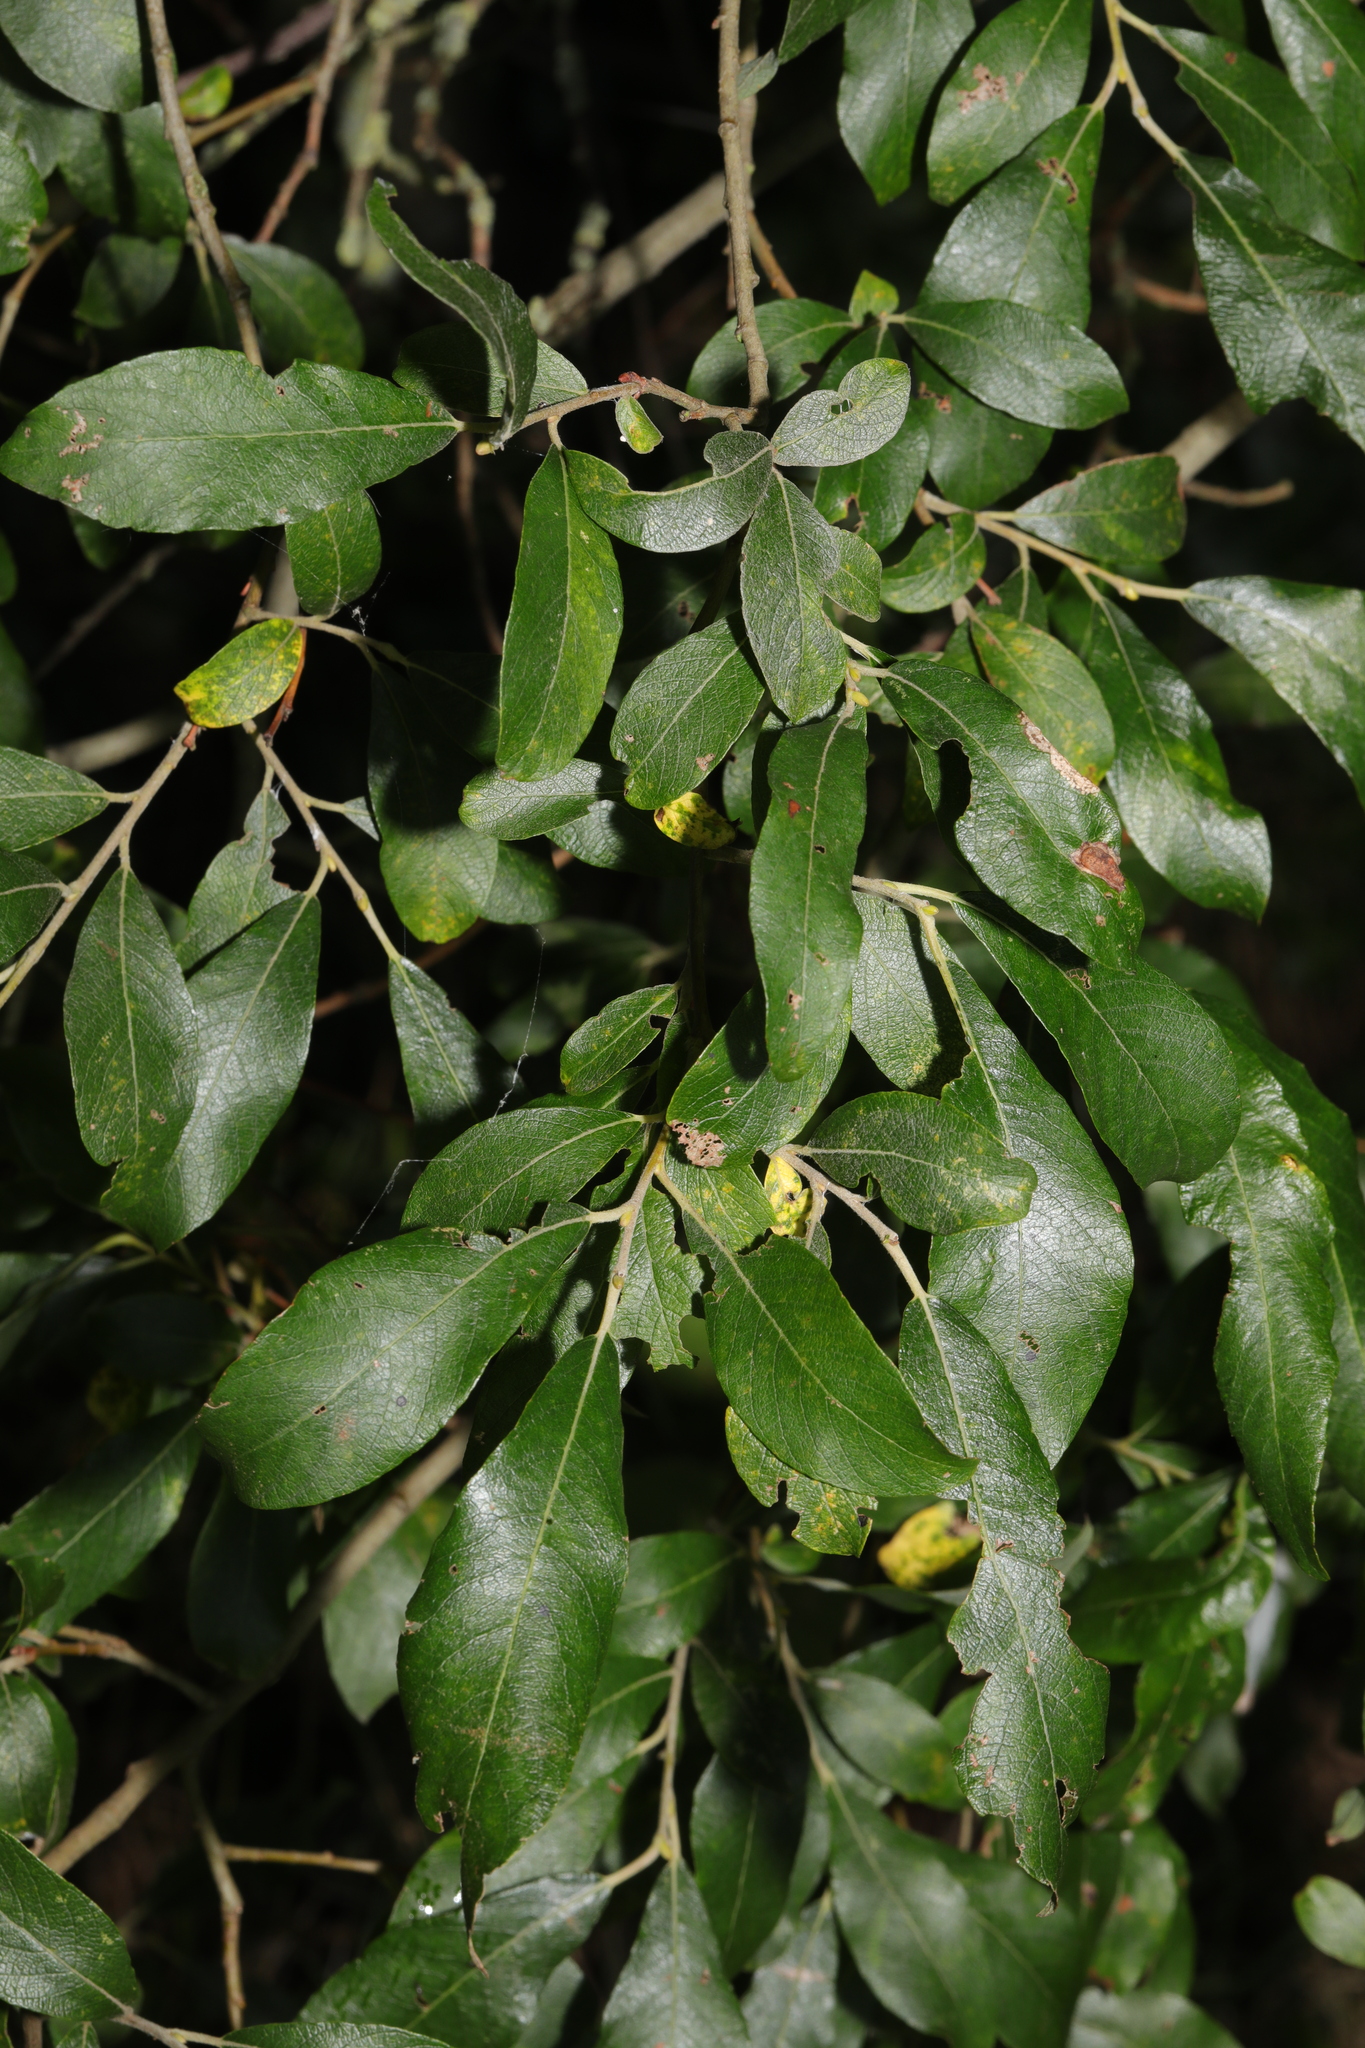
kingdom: Plantae
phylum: Tracheophyta
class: Magnoliopsida
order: Malpighiales
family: Salicaceae
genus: Salix
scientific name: Salix atrocinerea
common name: Rusty willow
